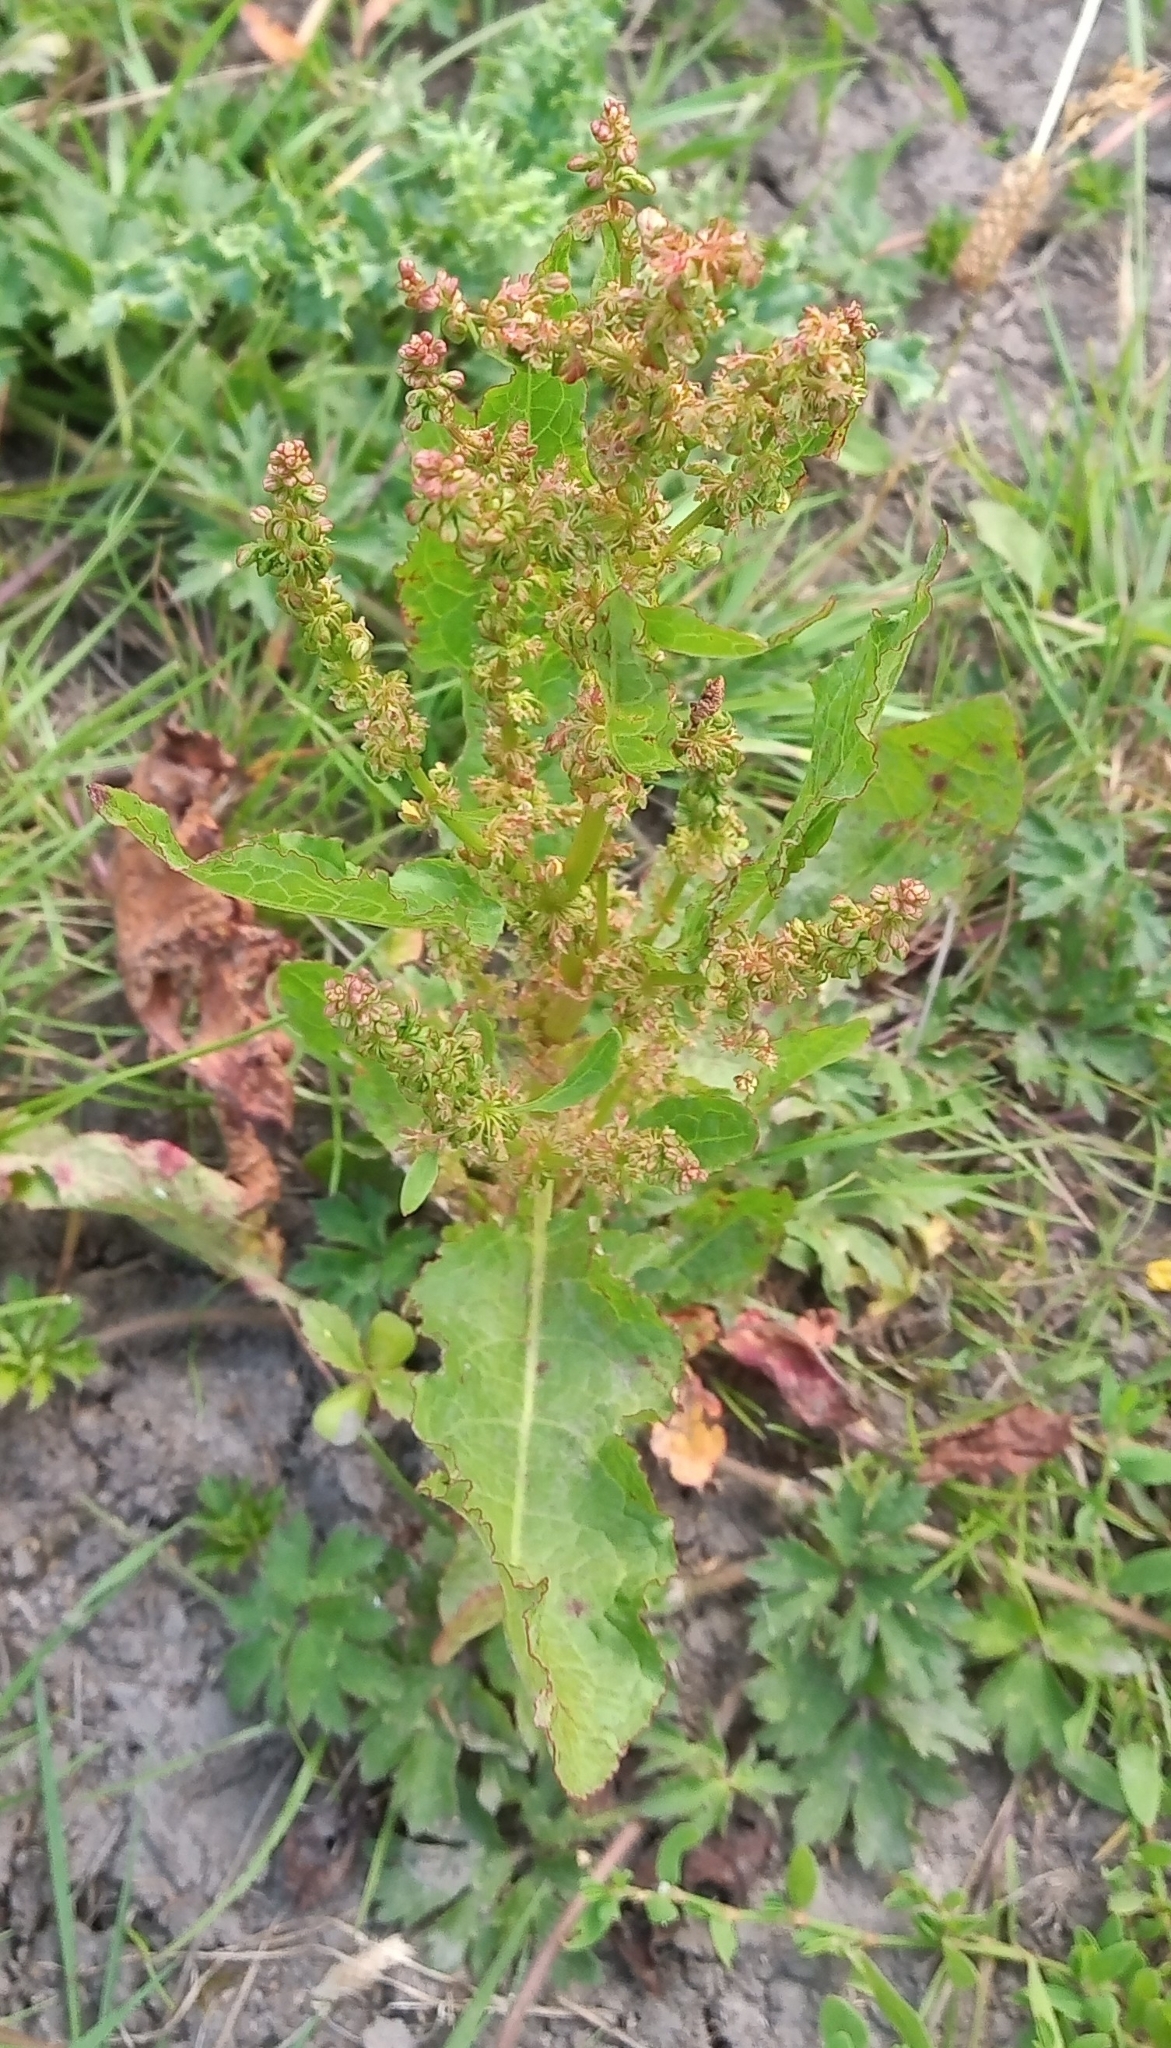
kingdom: Plantae
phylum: Tracheophyta
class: Magnoliopsida
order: Caryophyllales
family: Polygonaceae
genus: Rumex
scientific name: Rumex crispus
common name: Curled dock
